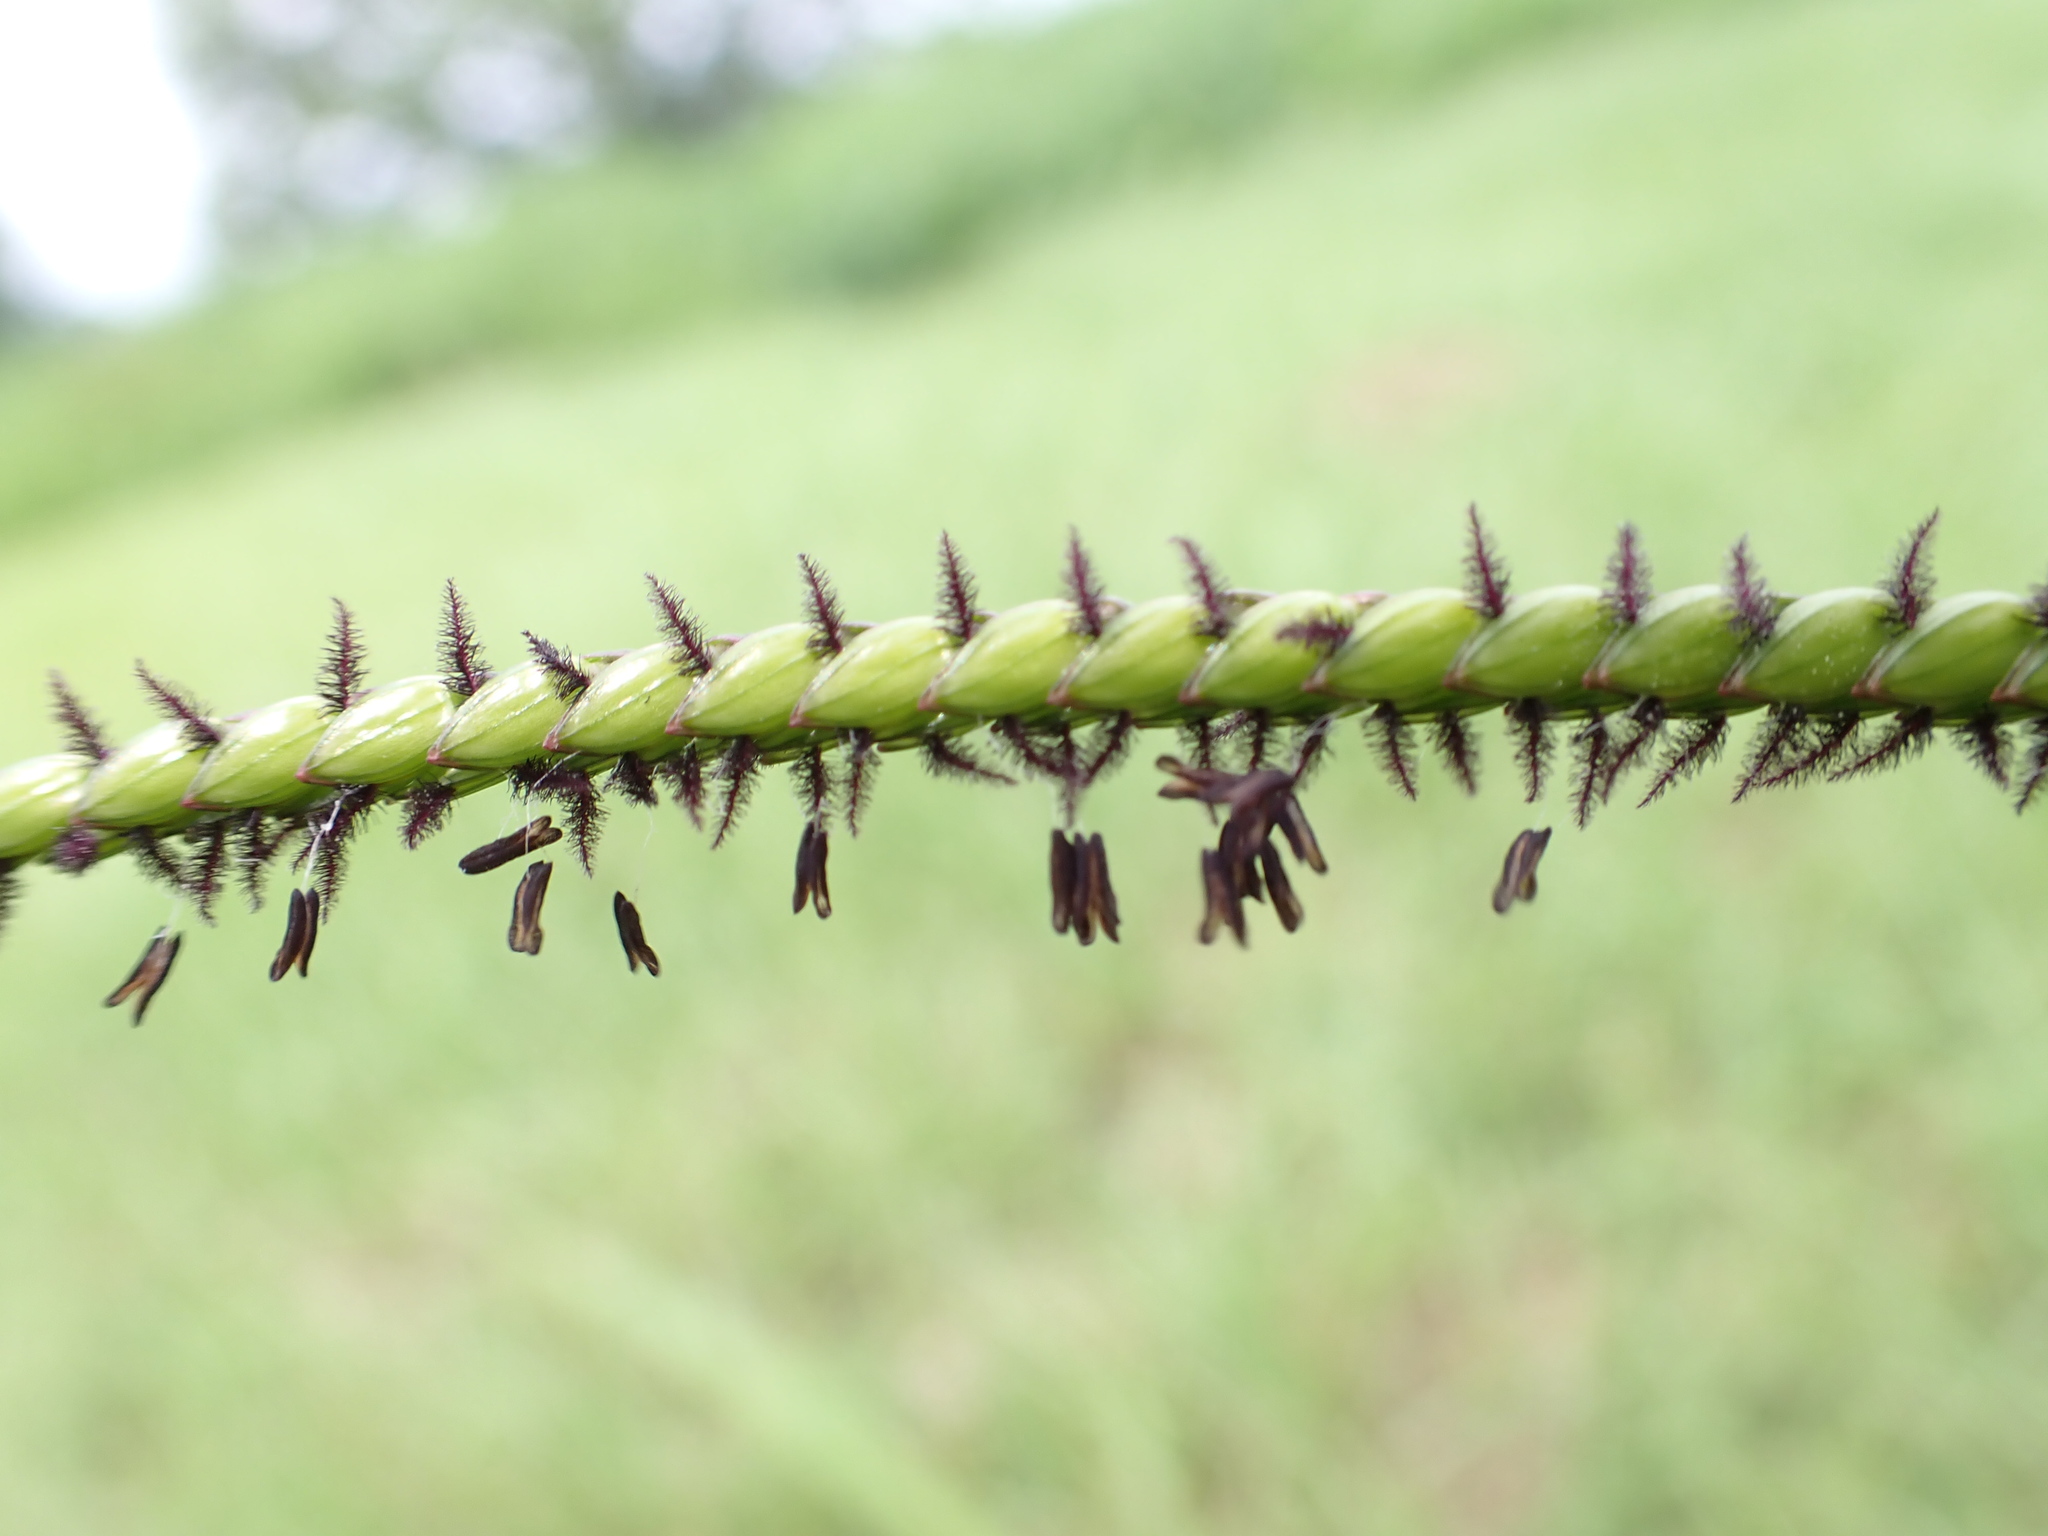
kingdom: Plantae
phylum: Tracheophyta
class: Liliopsida
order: Poales
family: Poaceae
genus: Paspalum
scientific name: Paspalum notatum
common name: Bahiagrass
